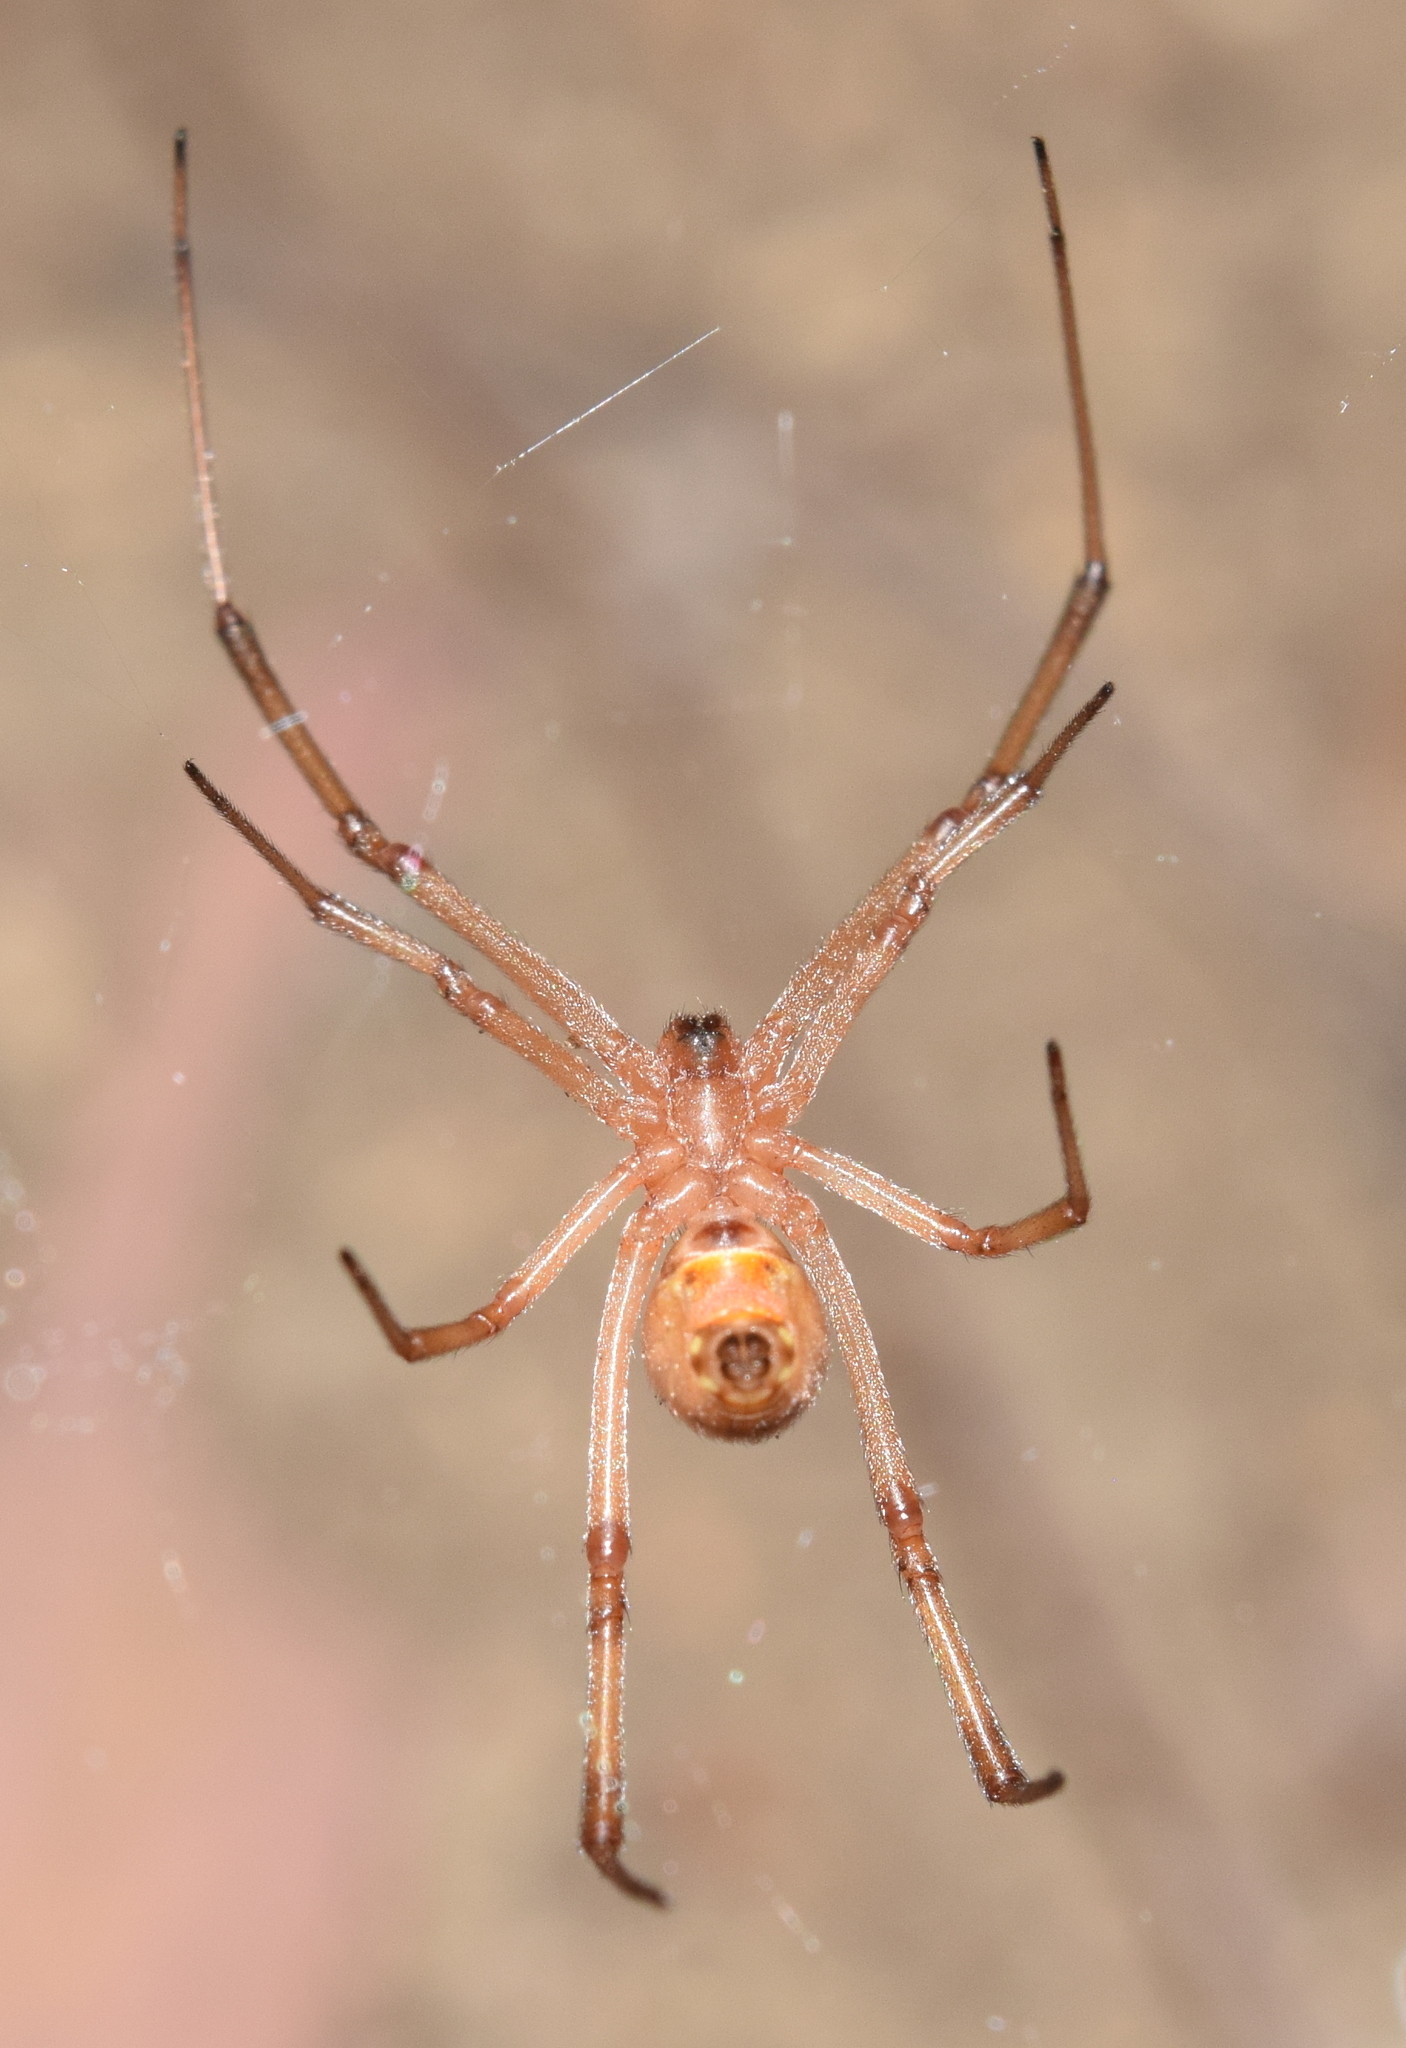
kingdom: Animalia
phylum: Arthropoda
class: Arachnida
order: Araneae
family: Theridiidae
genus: Latrodectus
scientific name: Latrodectus geometricus
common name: Brown widow spider
